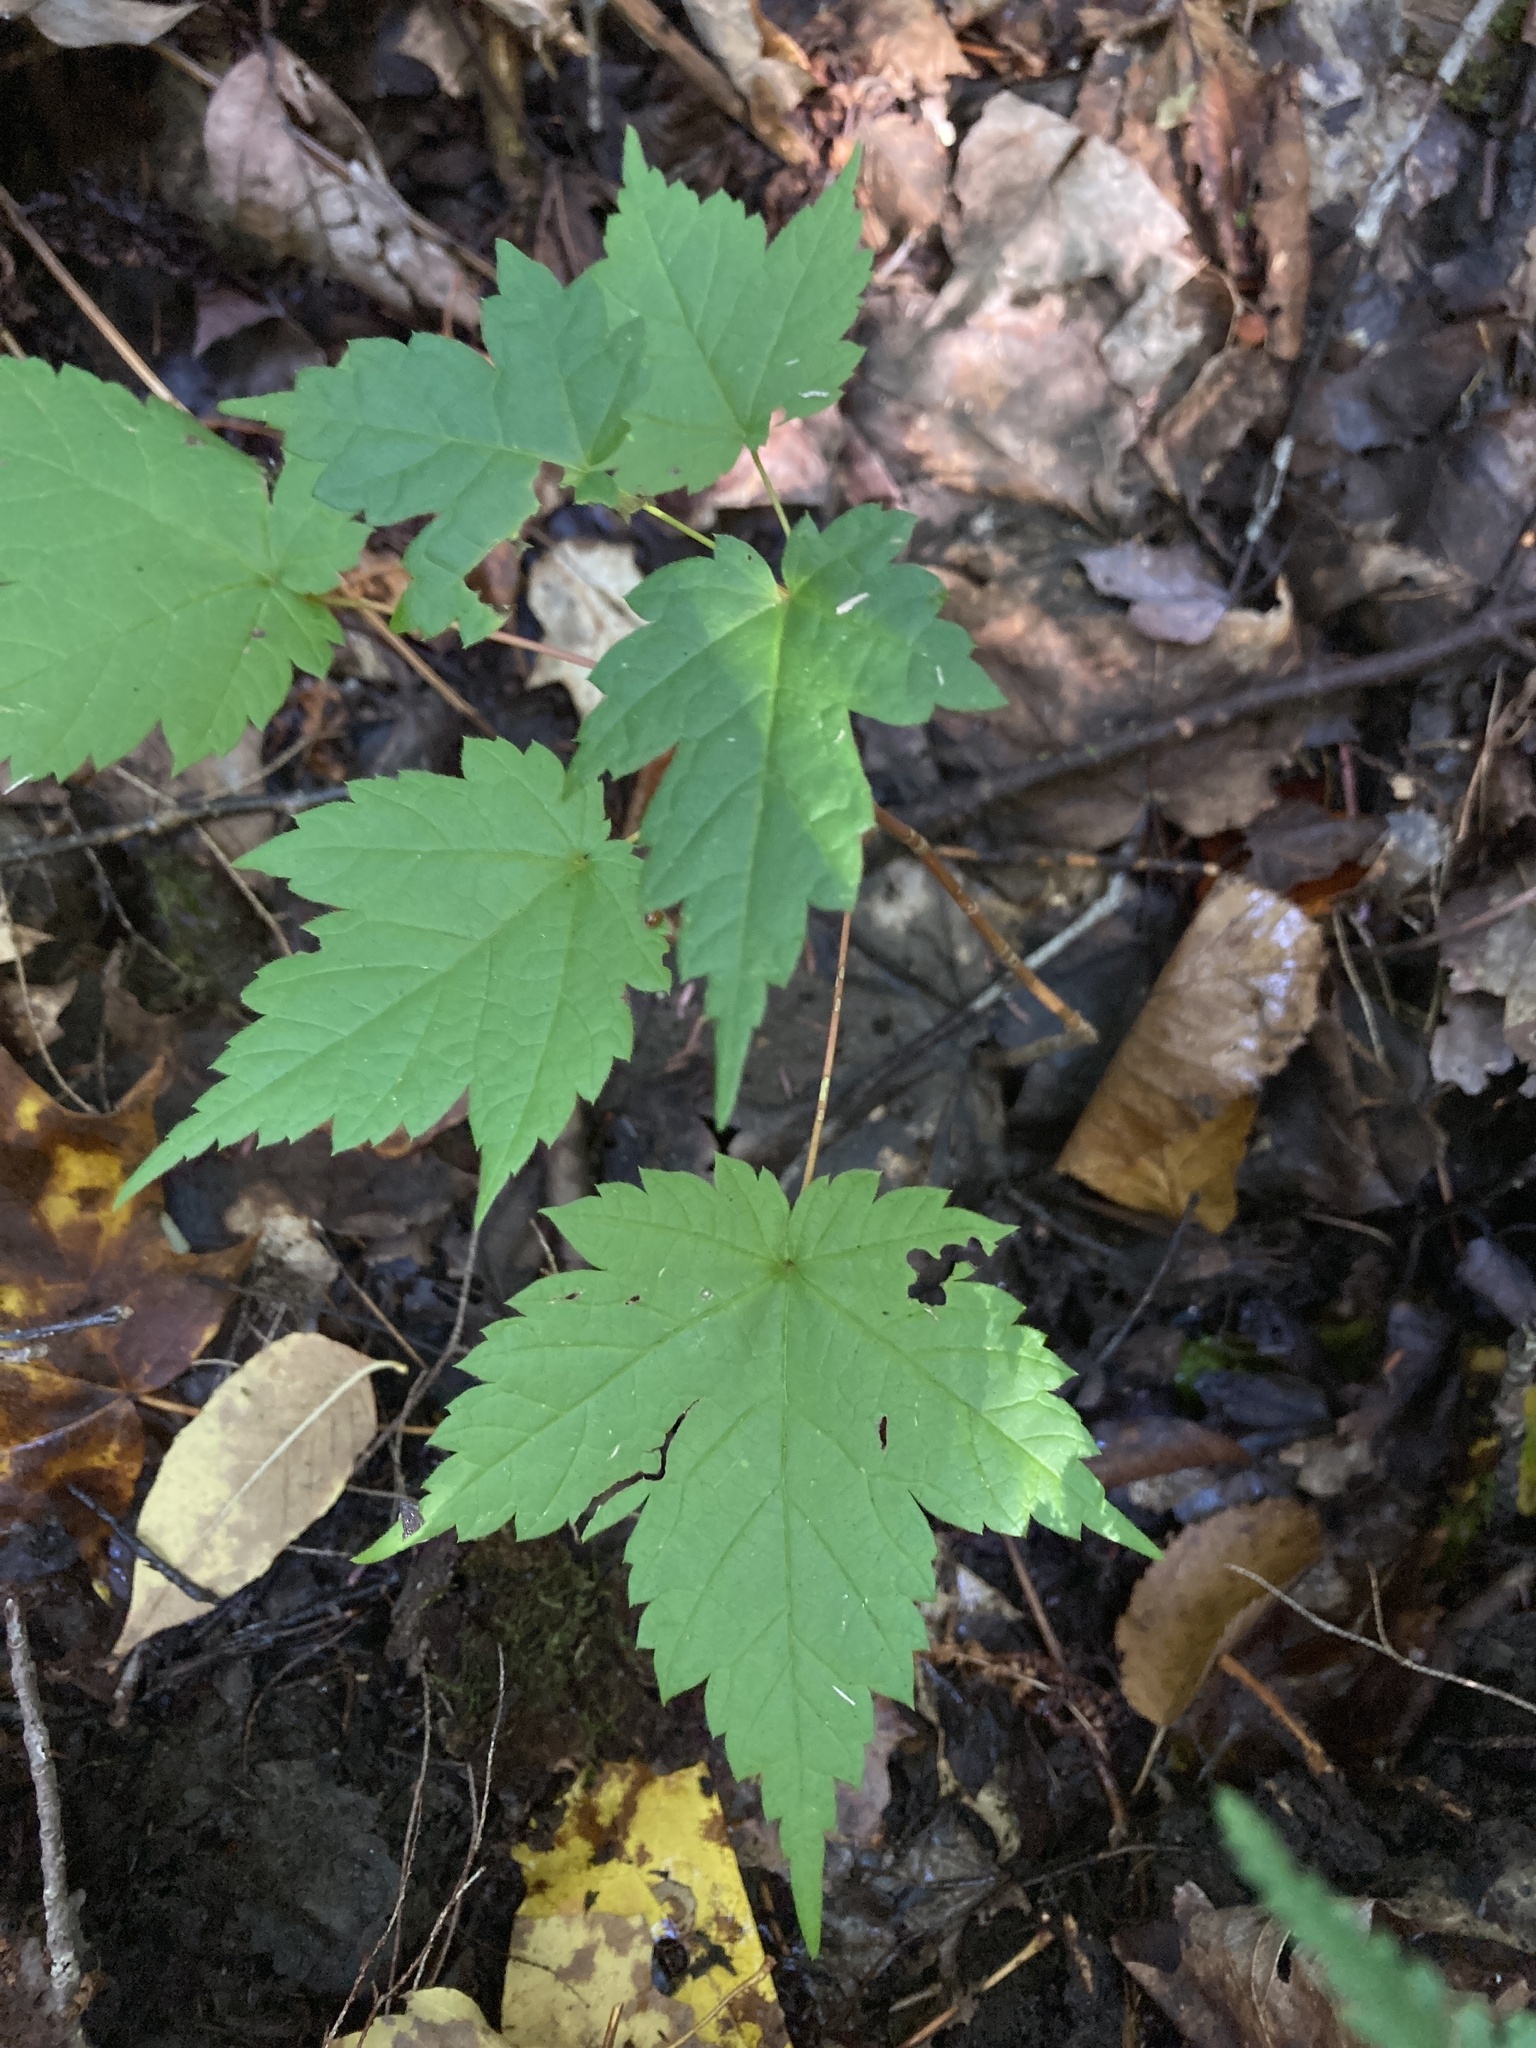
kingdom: Plantae
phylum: Tracheophyta
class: Magnoliopsida
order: Sapindales
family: Sapindaceae
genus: Acer
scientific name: Acer spicatum
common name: Mountain maple
